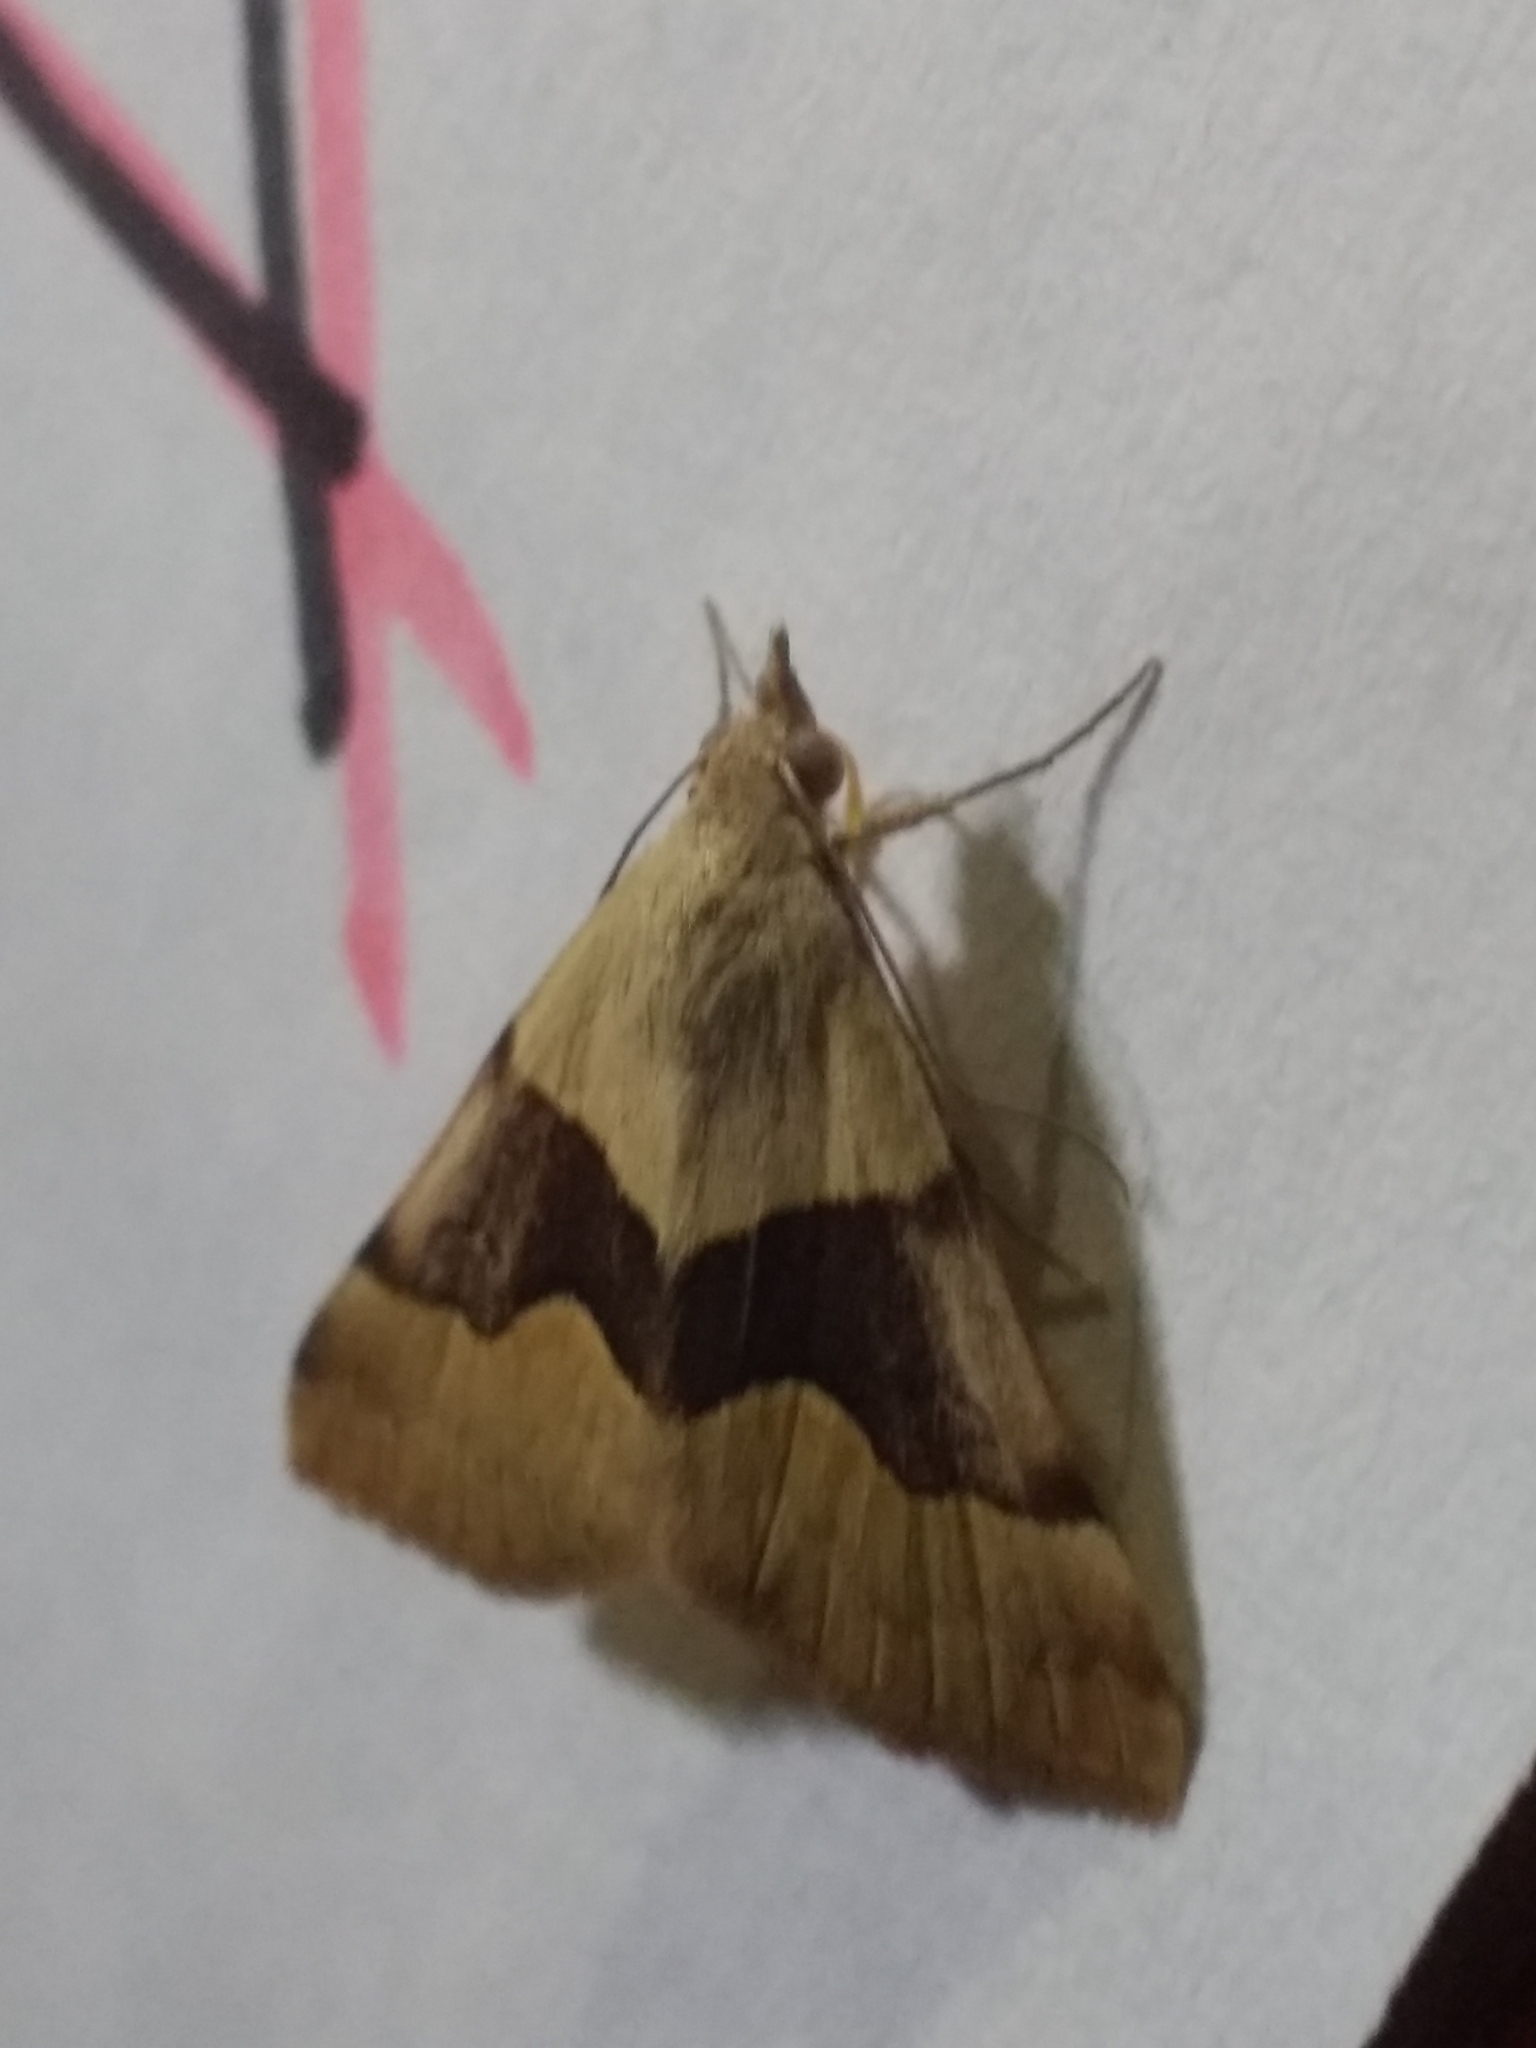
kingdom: Animalia
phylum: Arthropoda
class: Insecta
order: Lepidoptera
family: Erebidae
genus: Hemeroplanis
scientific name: Hemeroplanis incusalis
